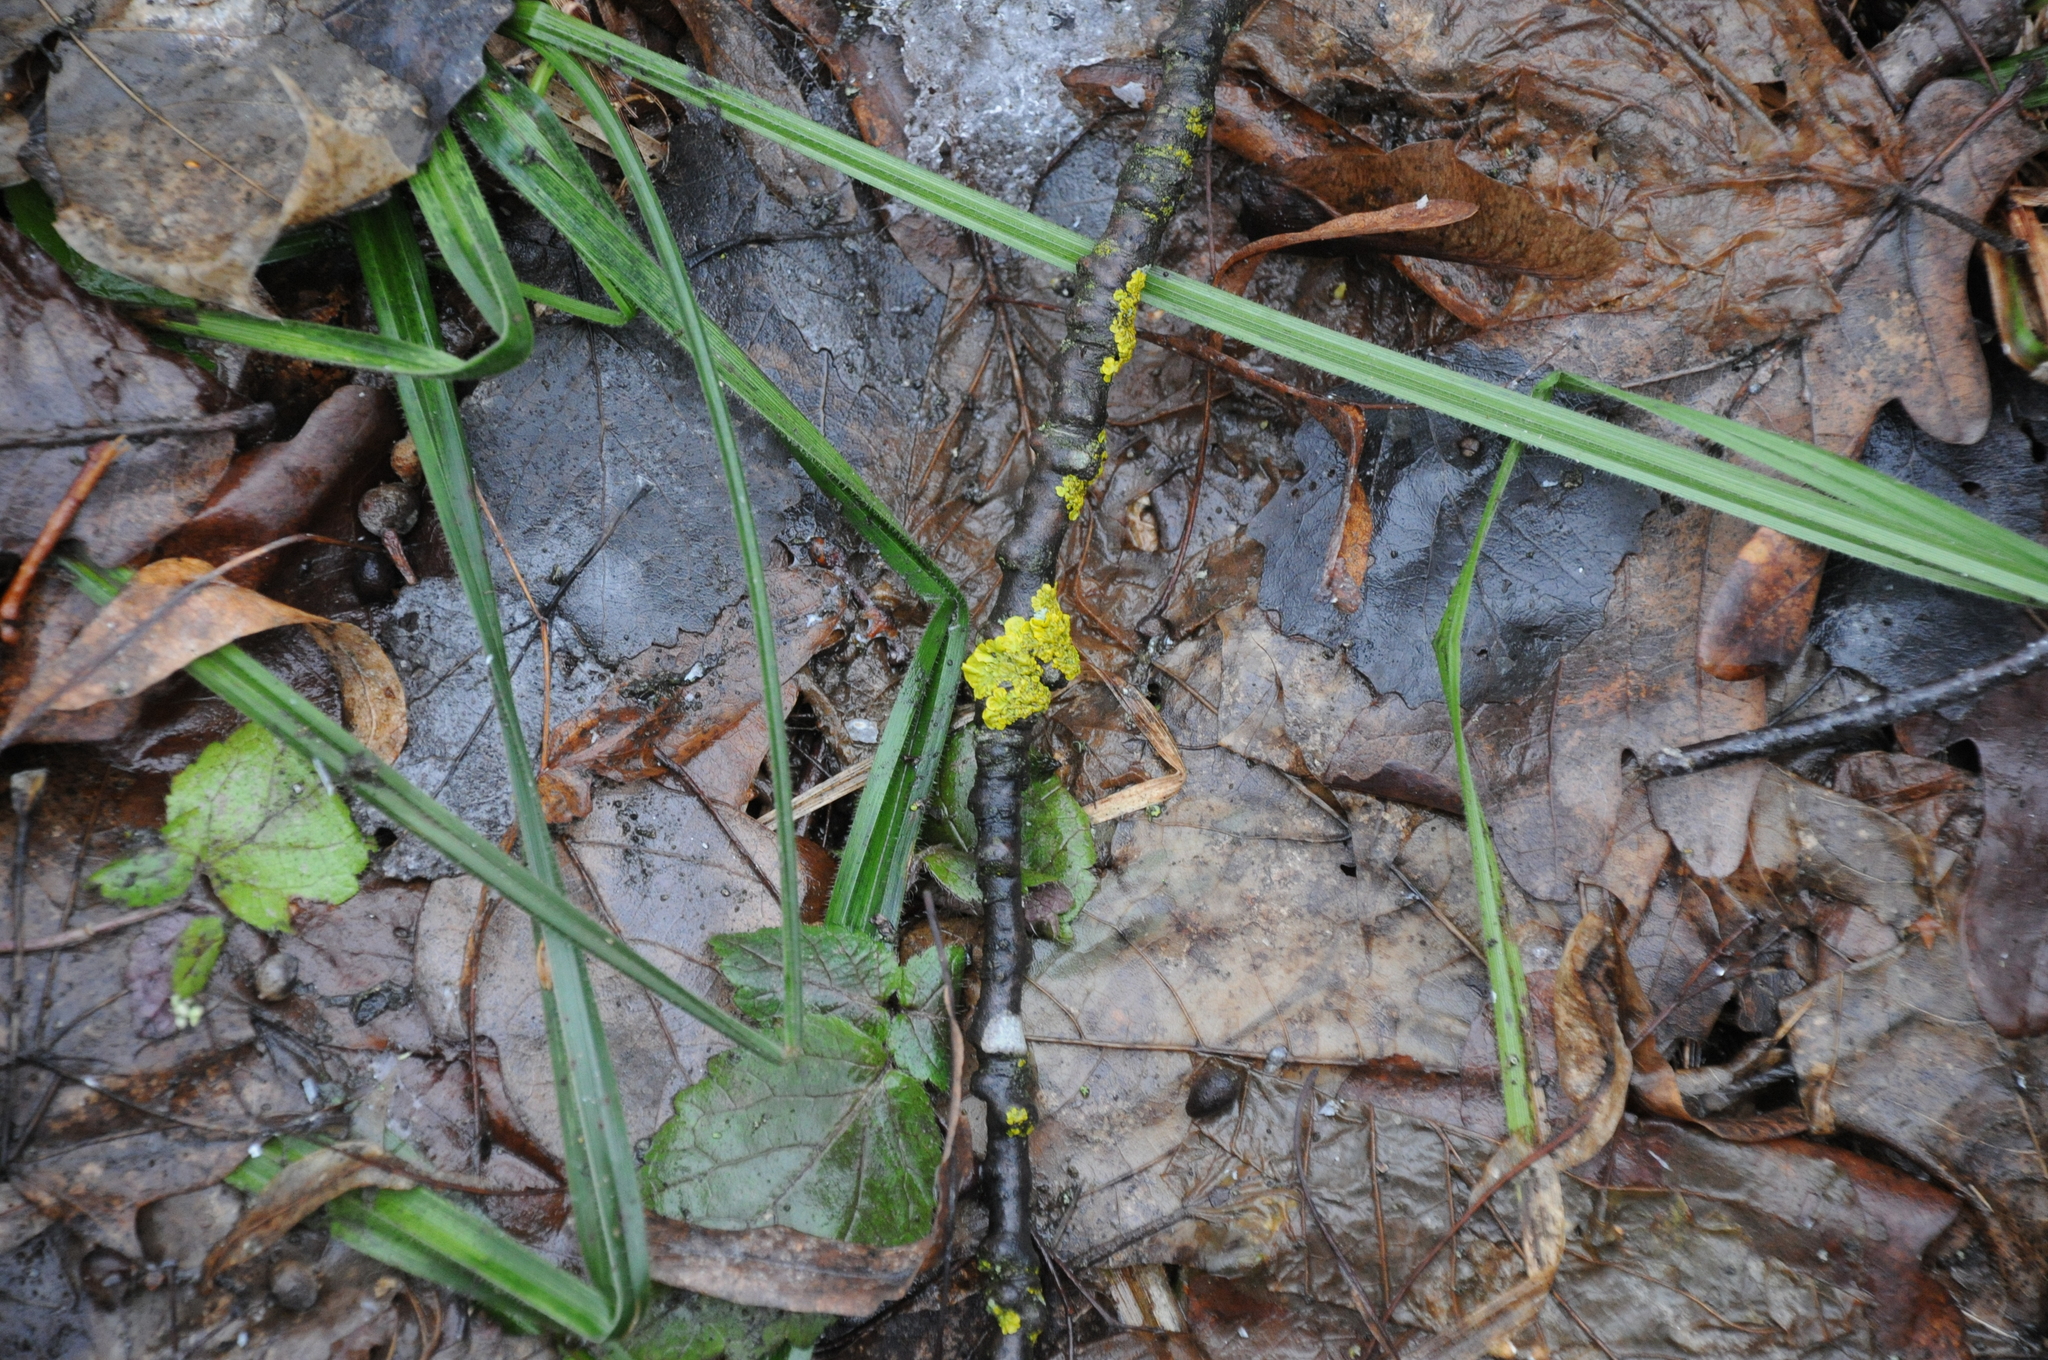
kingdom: Plantae
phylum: Tracheophyta
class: Liliopsida
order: Poales
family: Cyperaceae
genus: Carex
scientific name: Carex pilosa
